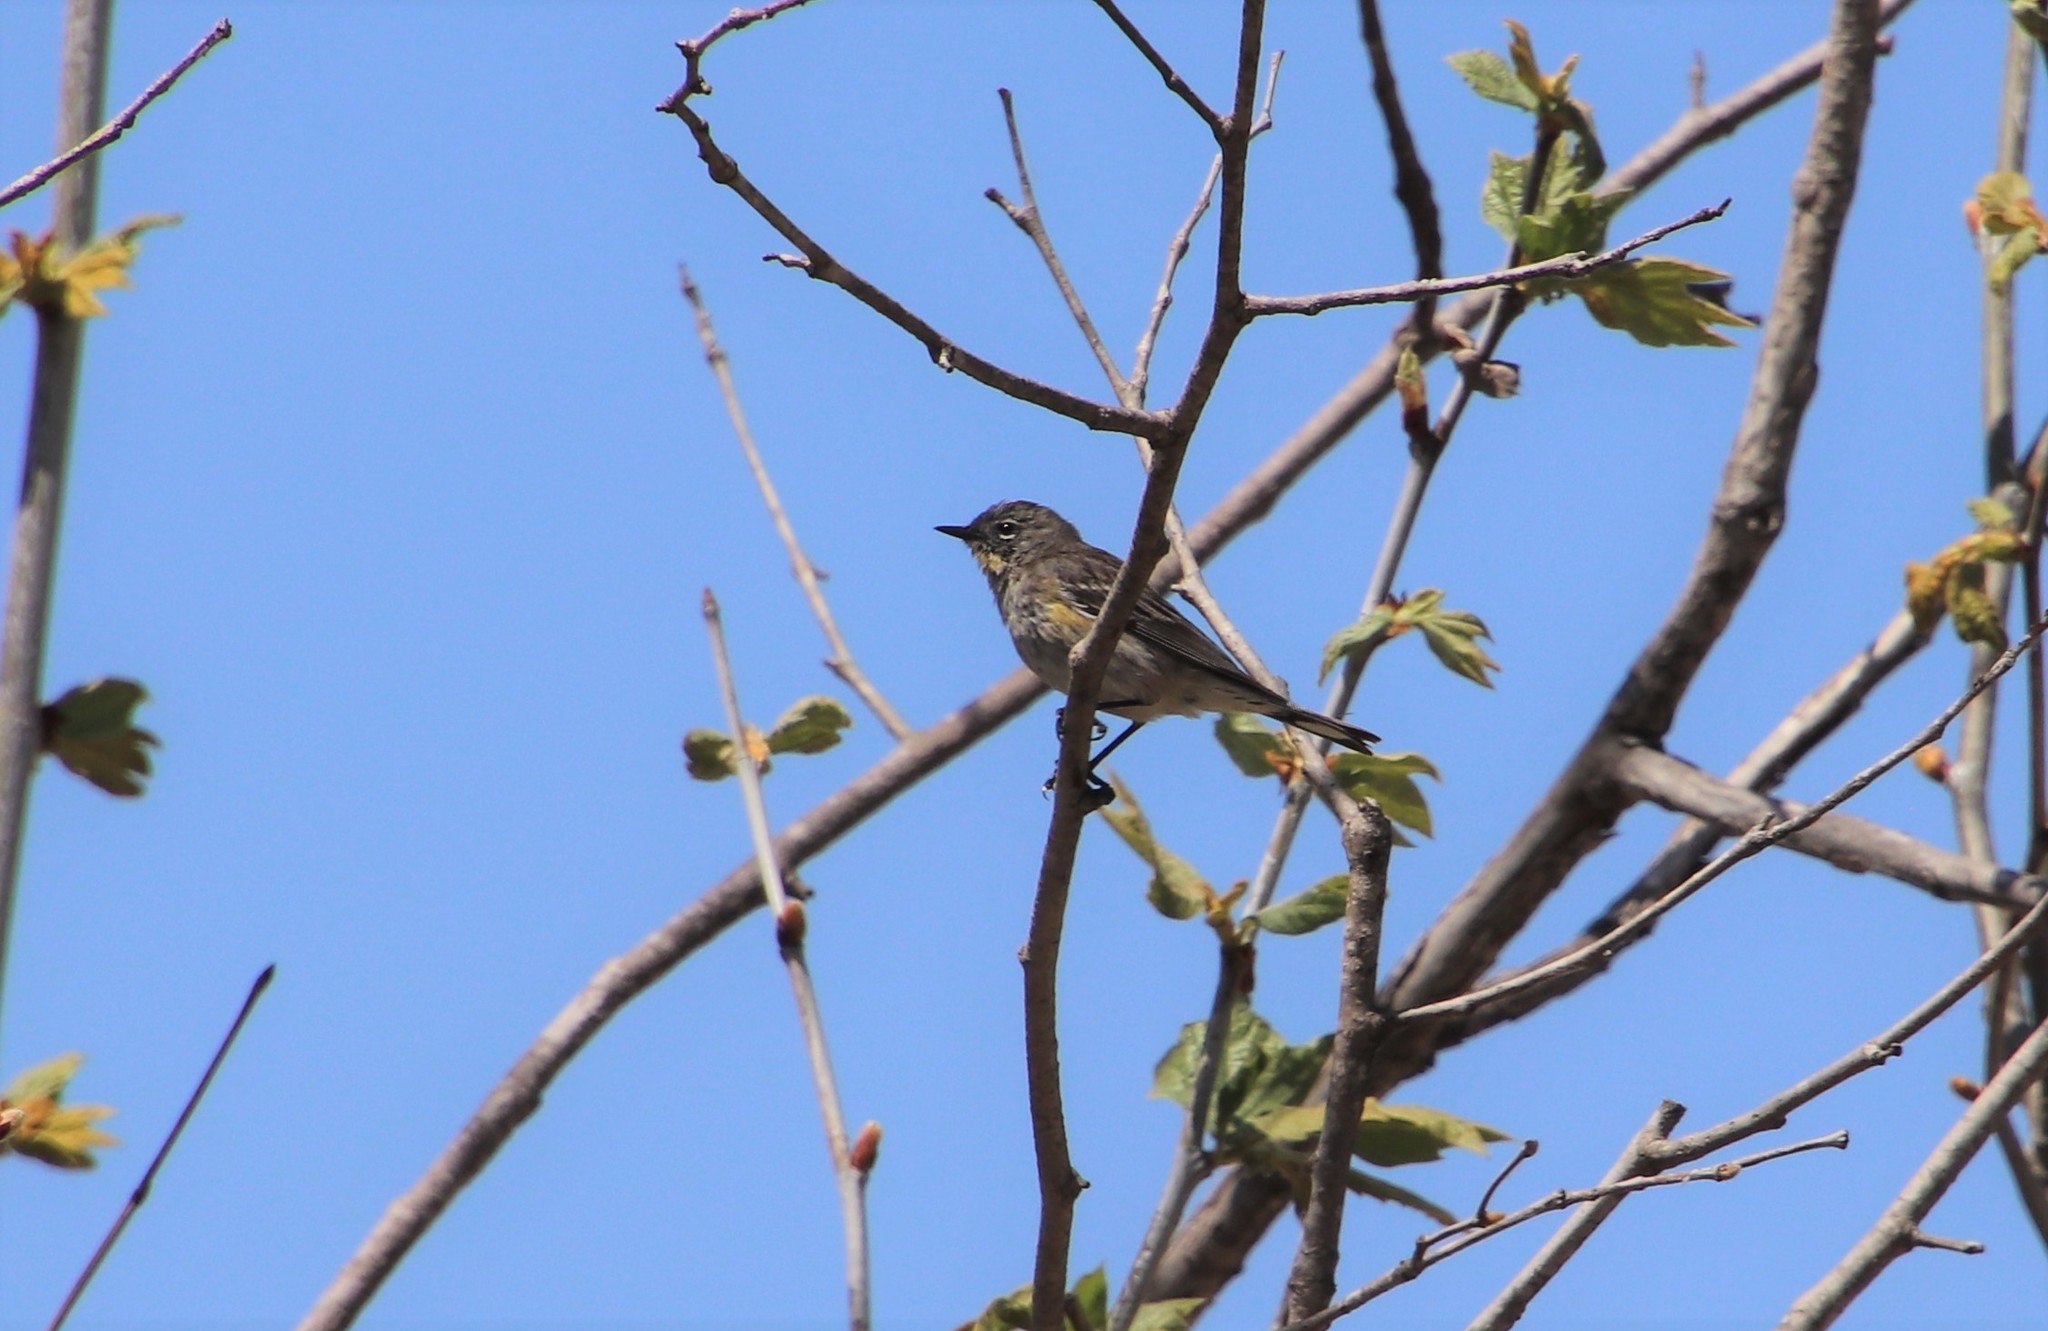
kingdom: Animalia
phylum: Chordata
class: Aves
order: Passeriformes
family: Parulidae
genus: Setophaga
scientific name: Setophaga auduboni
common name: Audubon's warbler
